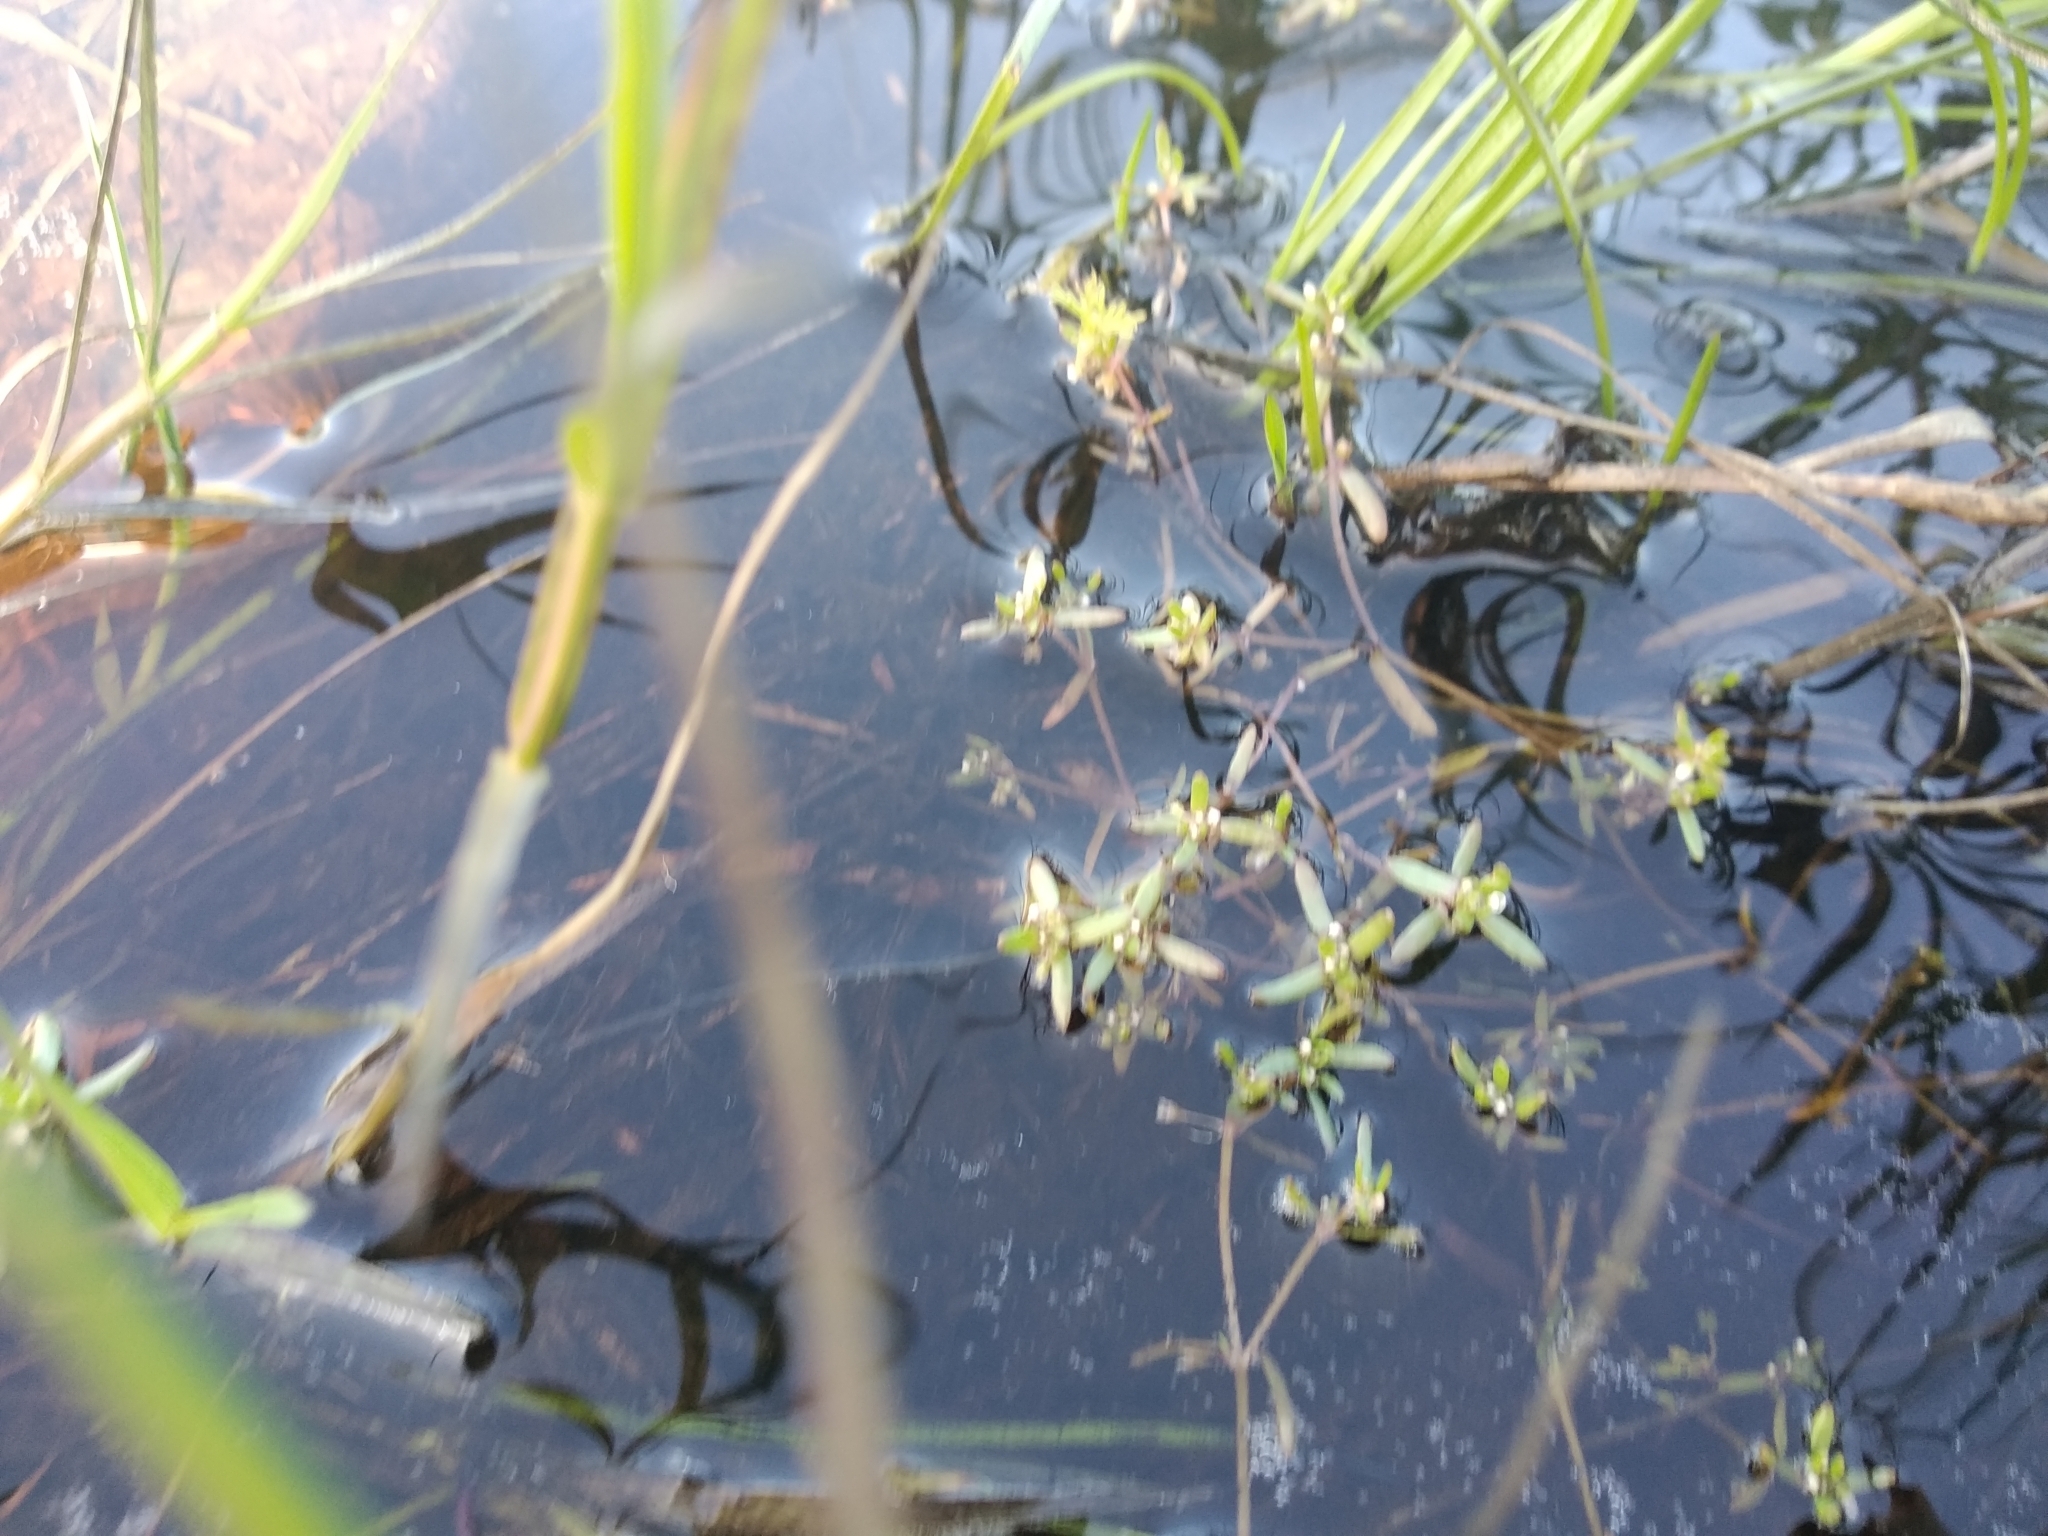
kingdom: Plantae
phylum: Tracheophyta
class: Magnoliopsida
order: Saxifragales
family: Crassulaceae
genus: Crassula
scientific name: Crassula natans
